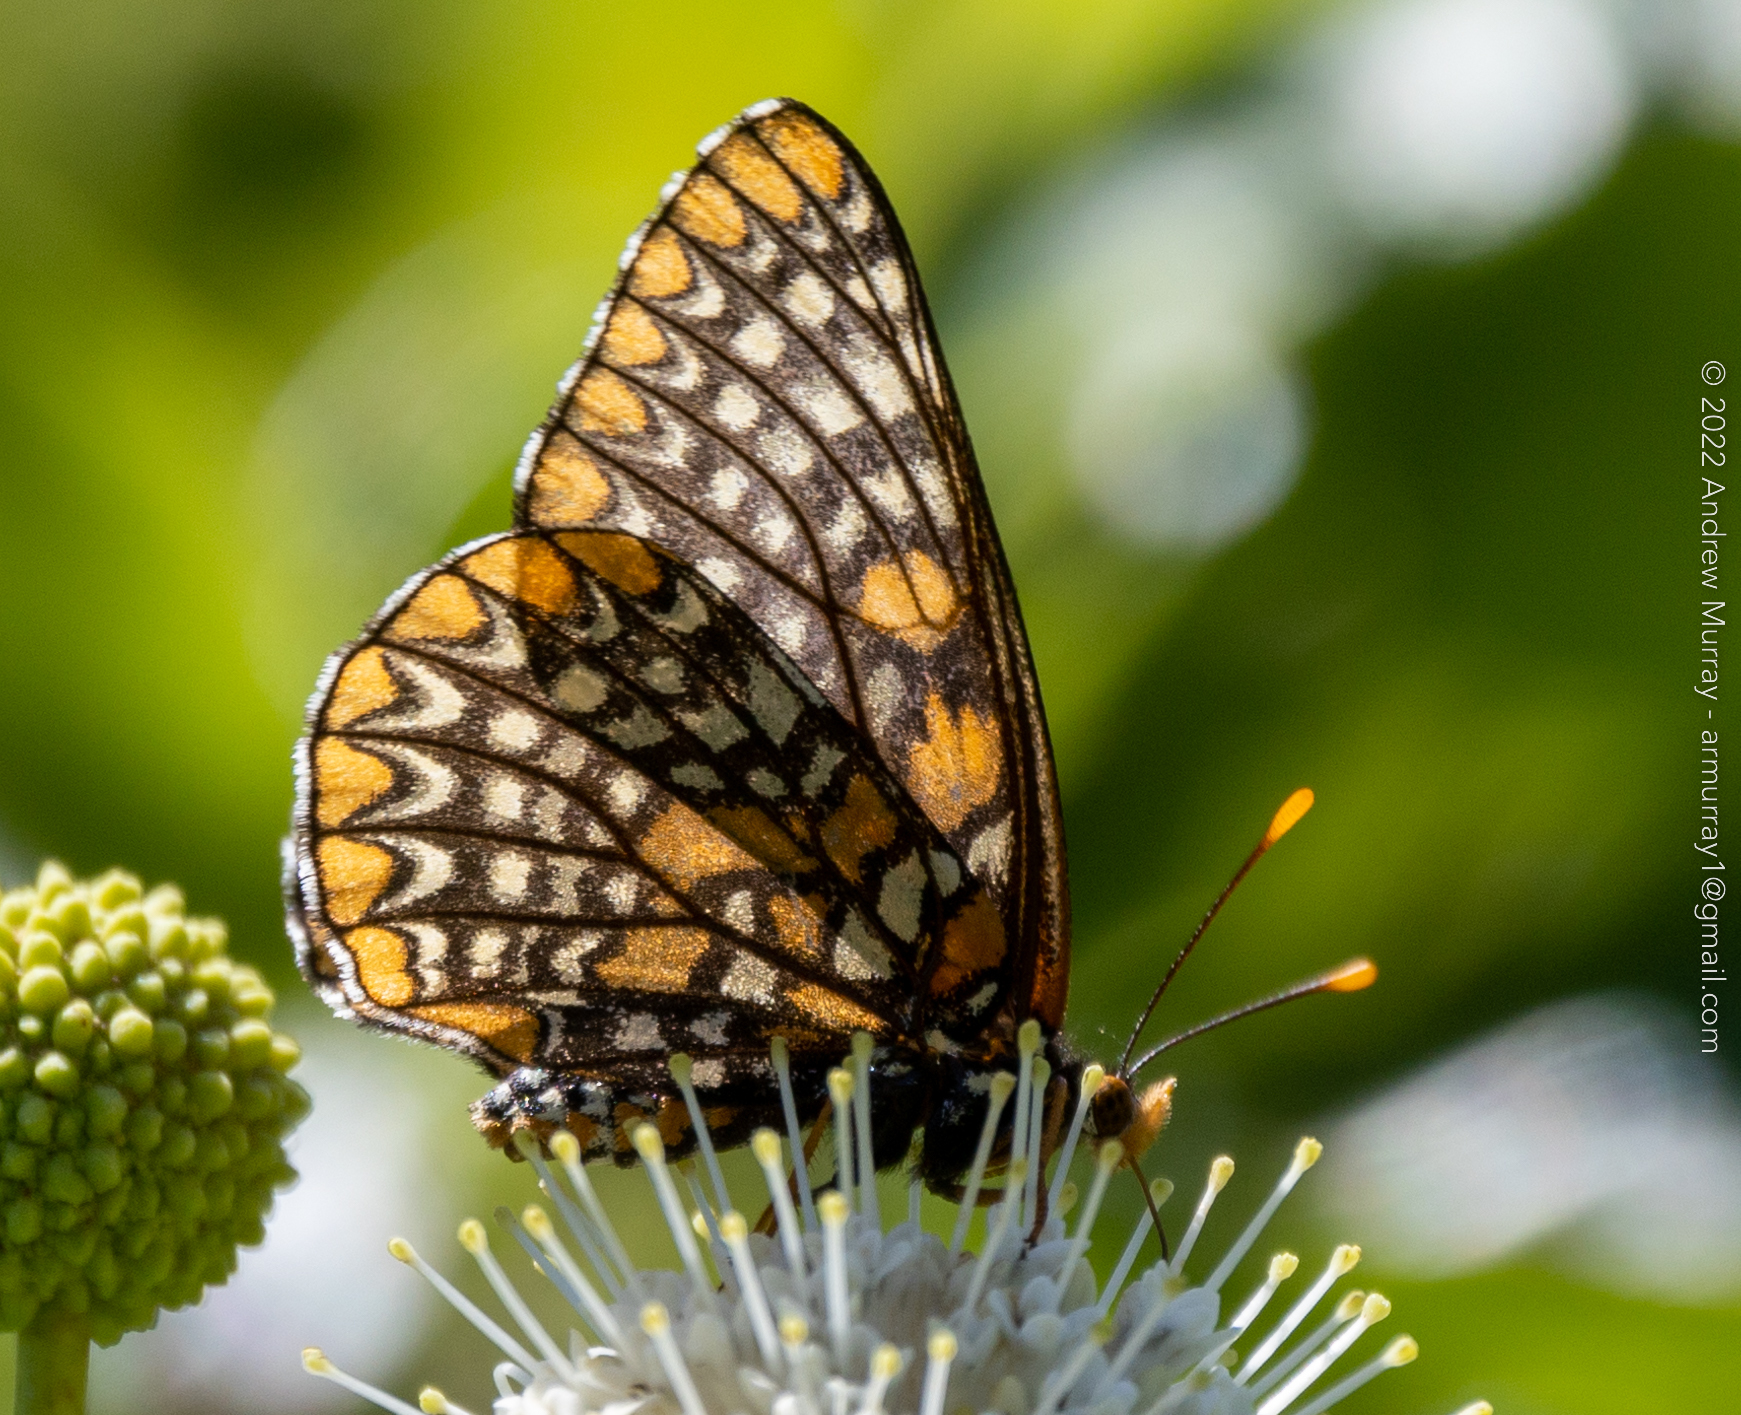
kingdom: Animalia
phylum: Arthropoda
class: Insecta
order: Lepidoptera
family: Nymphalidae
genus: Euphydryas
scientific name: Euphydryas phaeton
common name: Baltimore checkerspot
